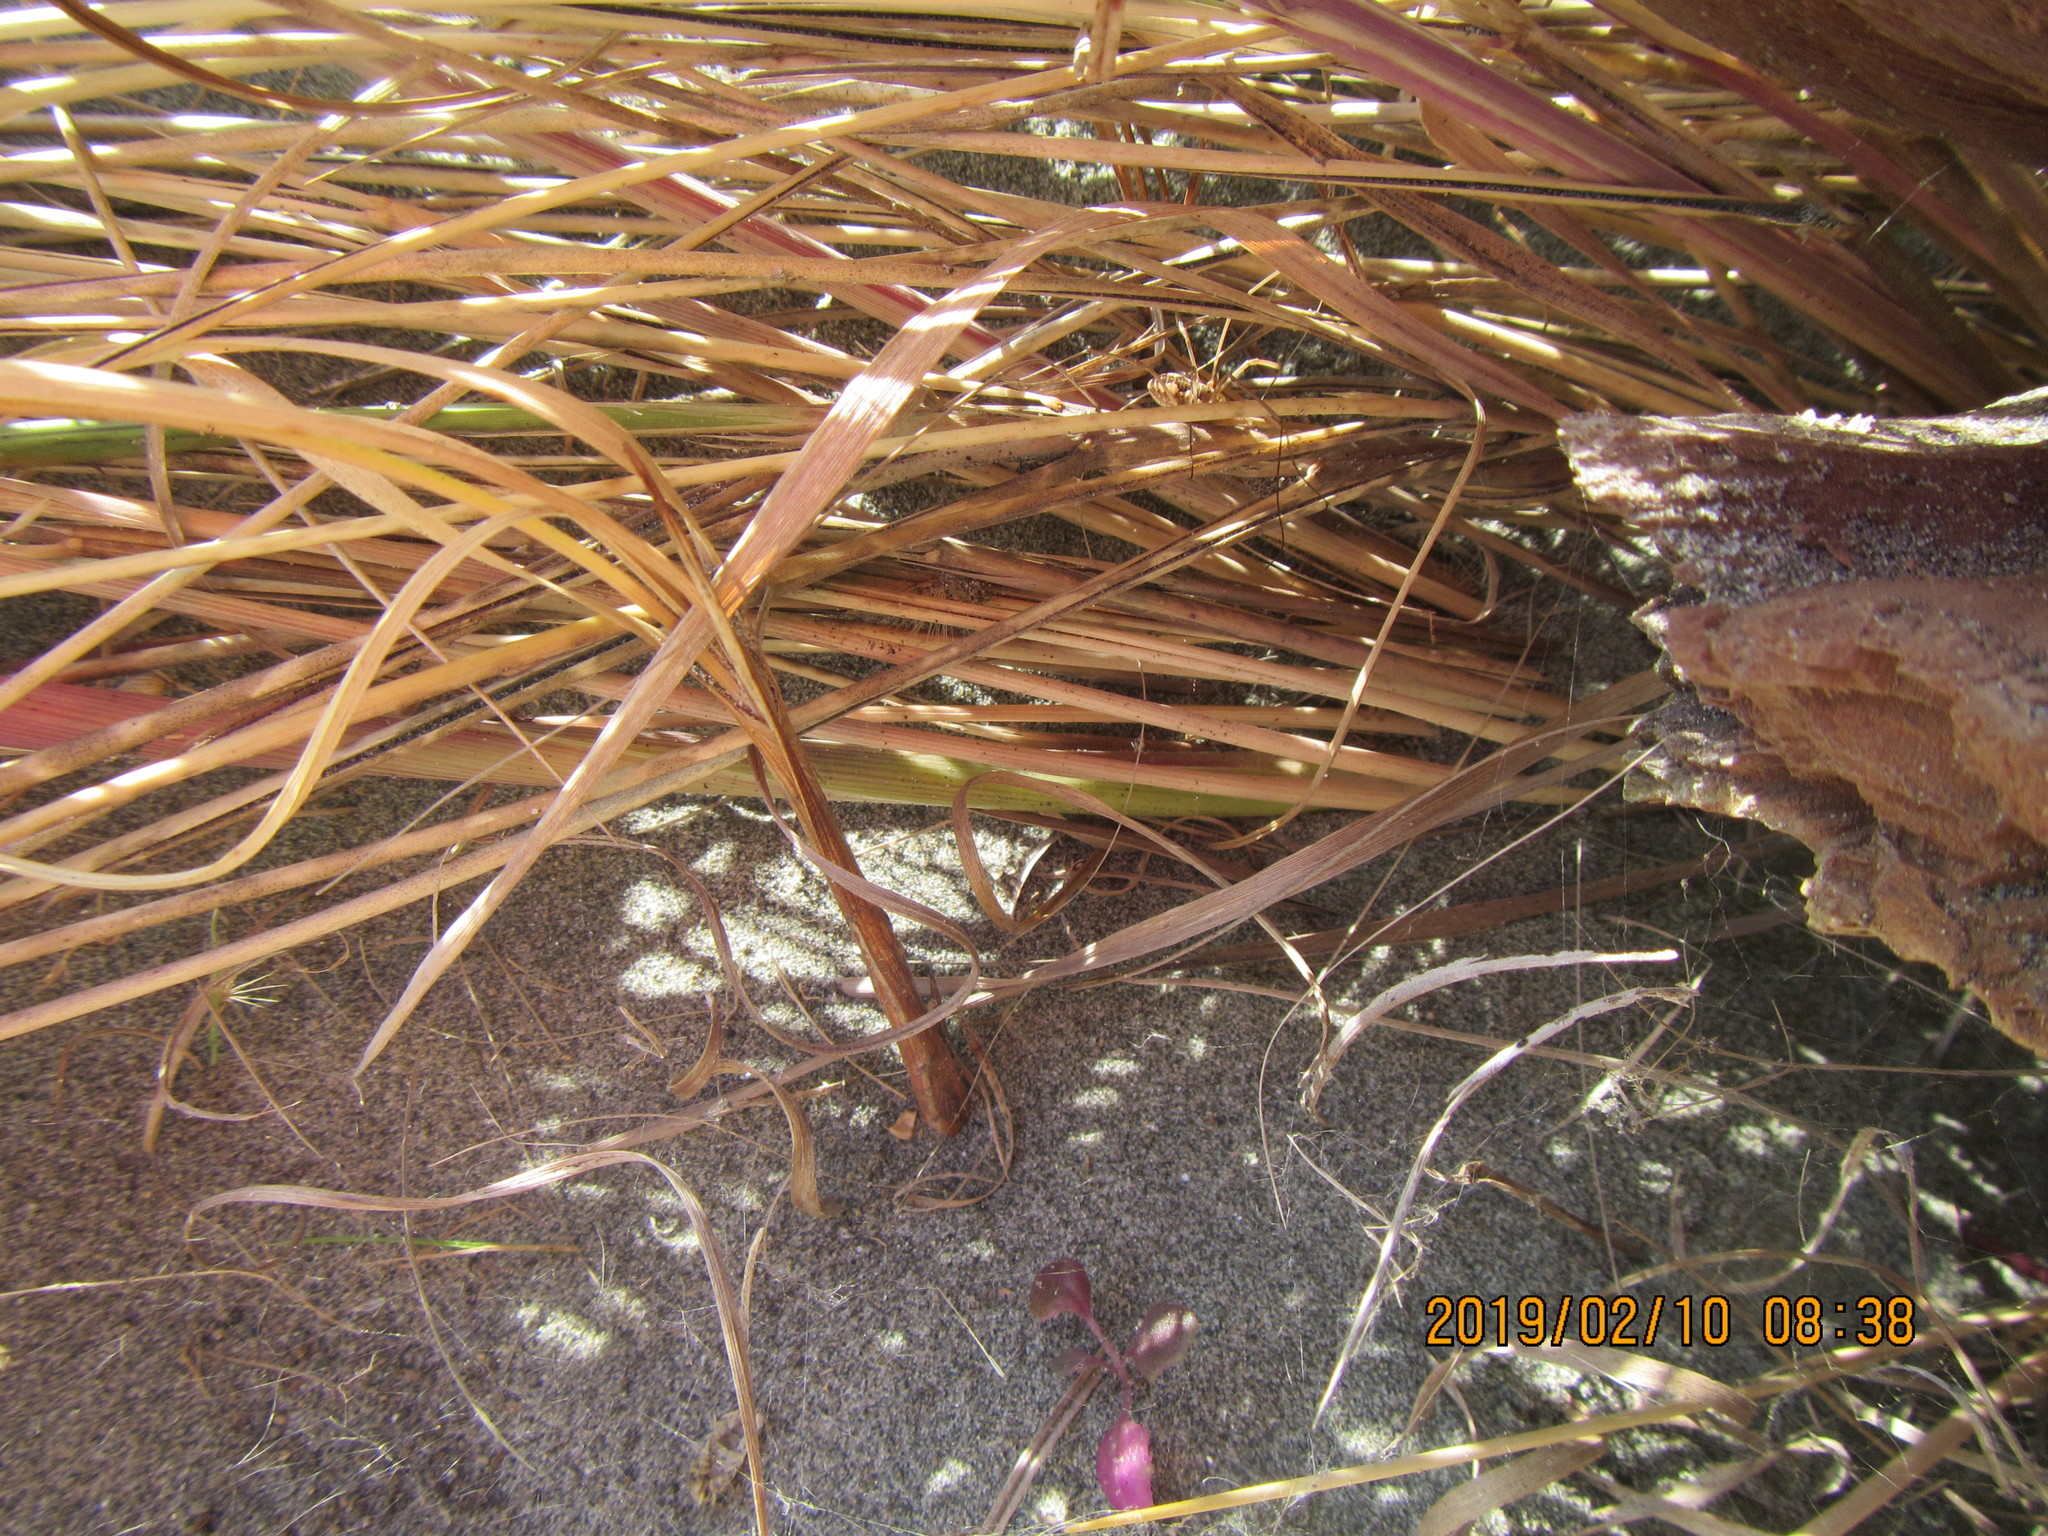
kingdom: Animalia
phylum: Arthropoda
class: Arachnida
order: Opiliones
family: Phalangiidae
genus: Phalangium
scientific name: Phalangium opilio
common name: Daddy longleg
